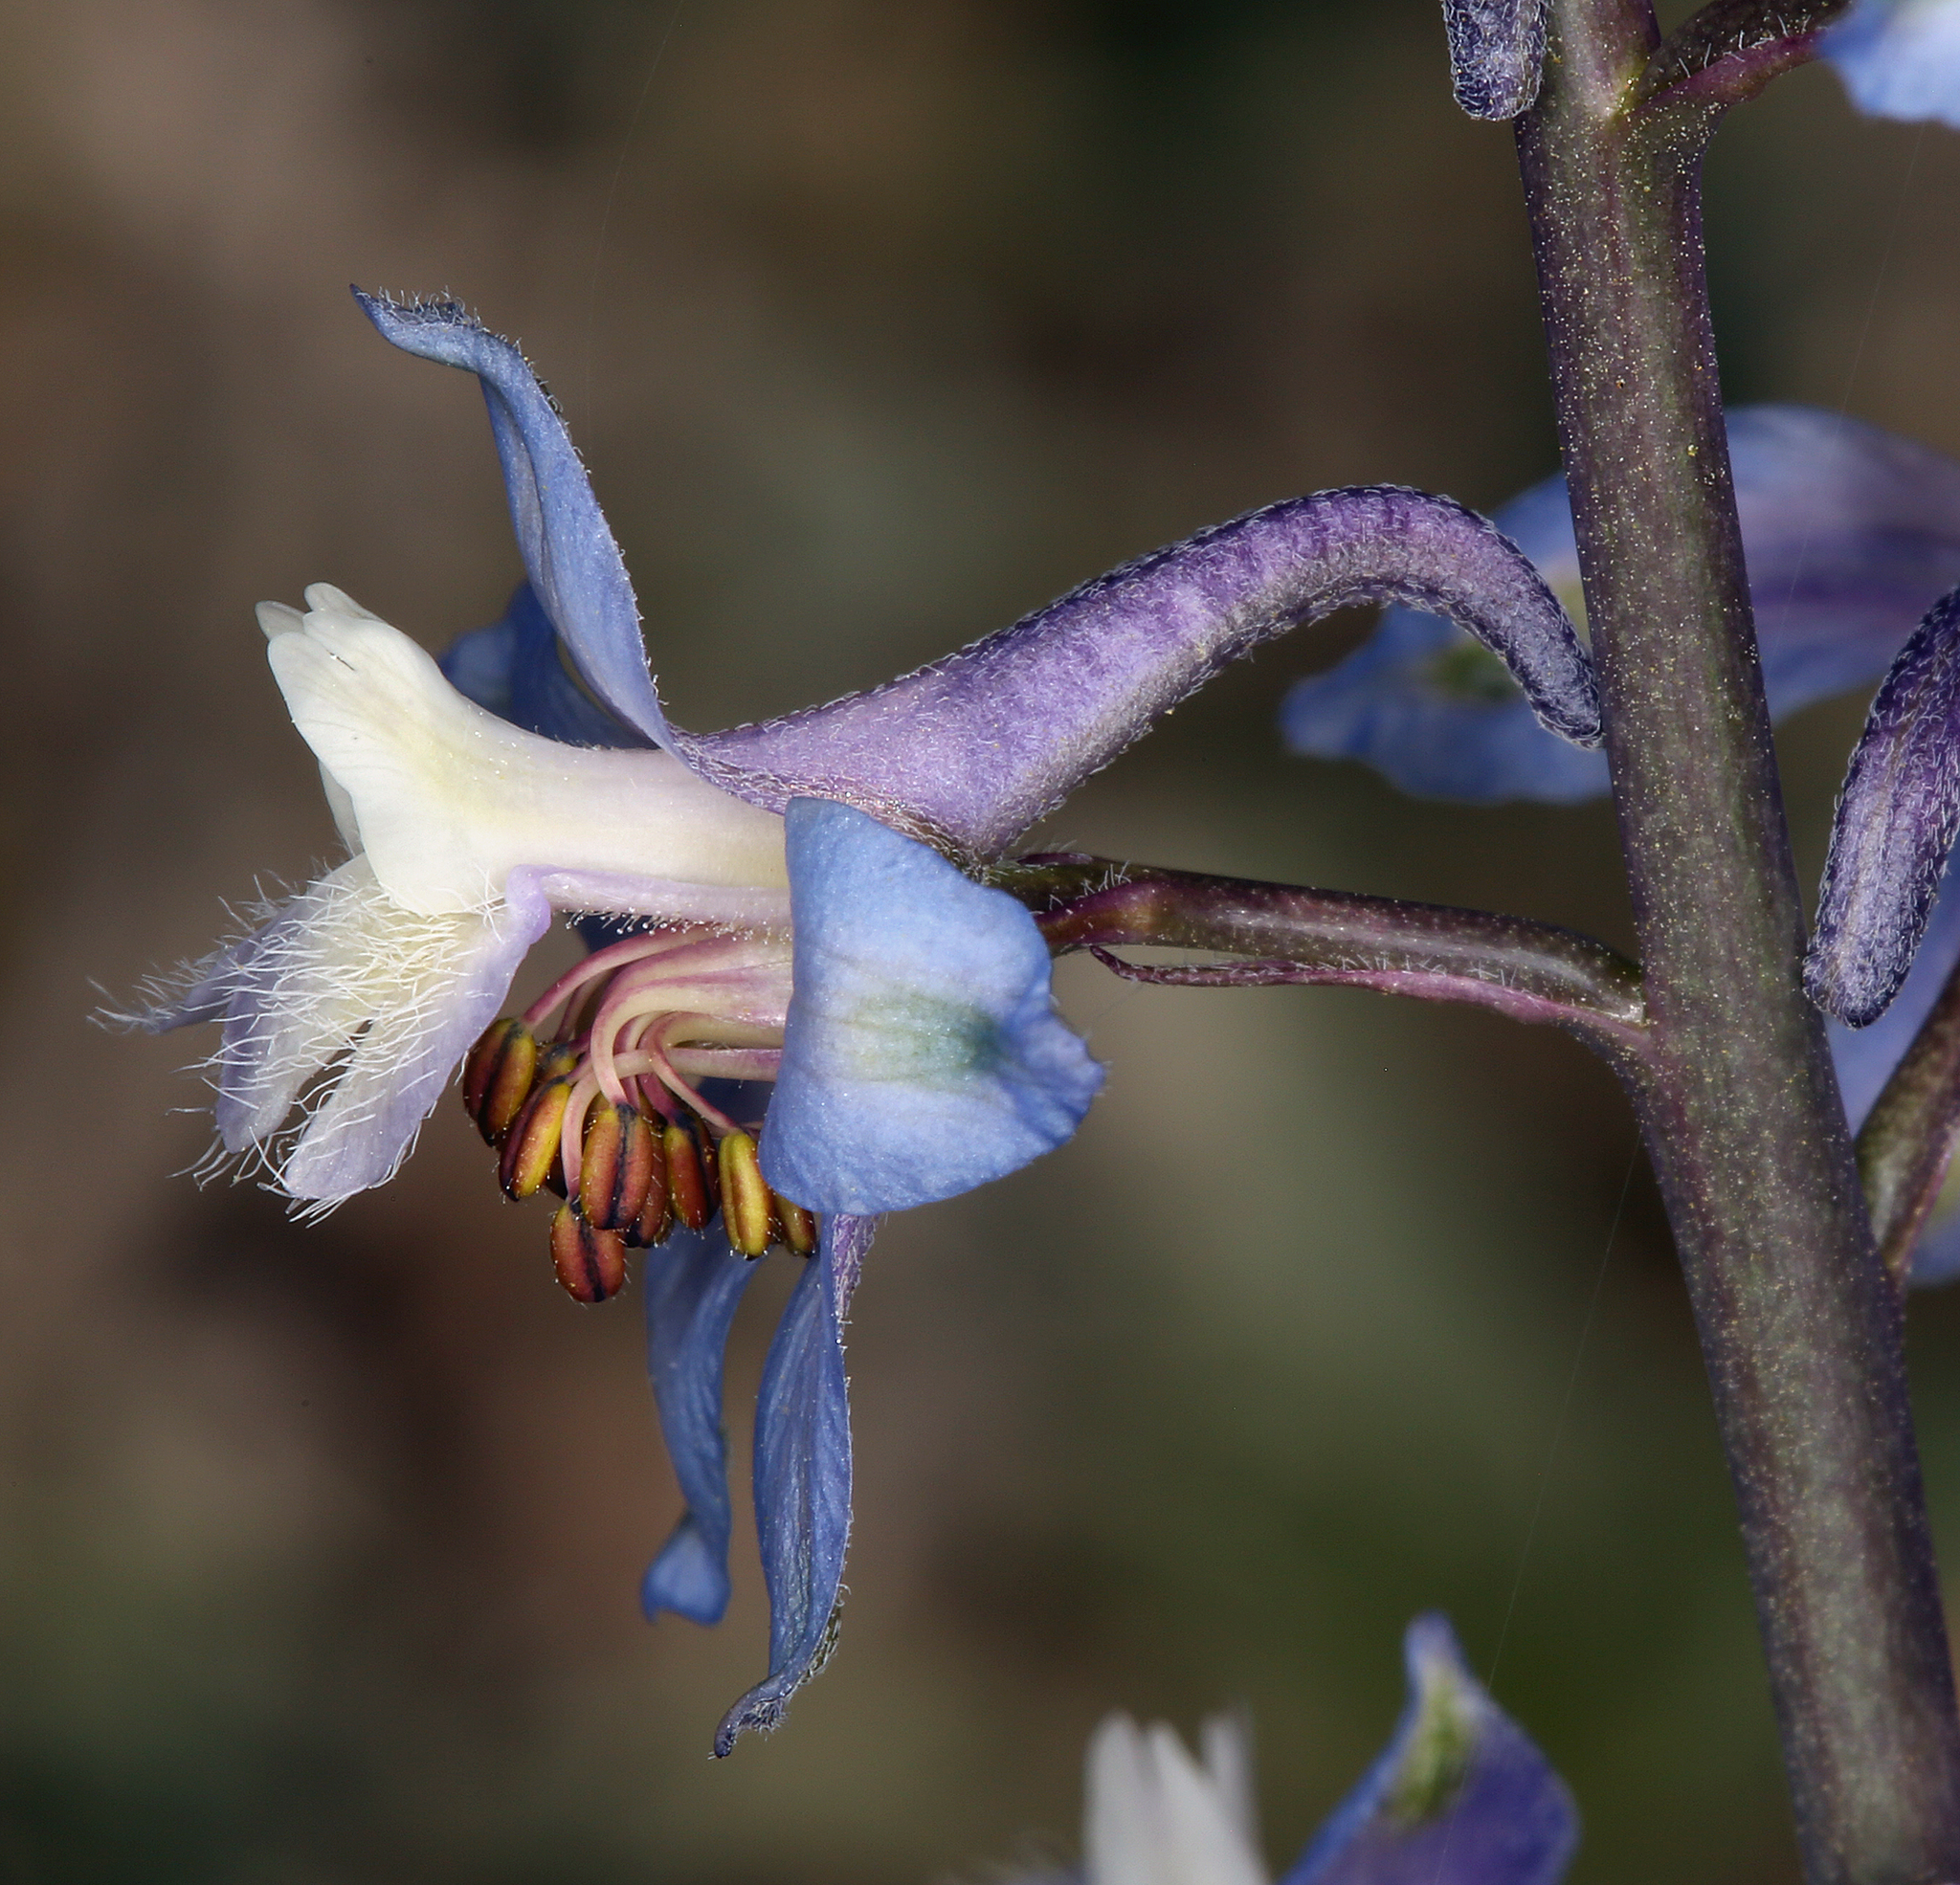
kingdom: Plantae
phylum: Tracheophyta
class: Magnoliopsida
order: Ranunculales
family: Ranunculaceae
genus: Delphinium
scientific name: Delphinium parishii
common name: Apache larkspur
